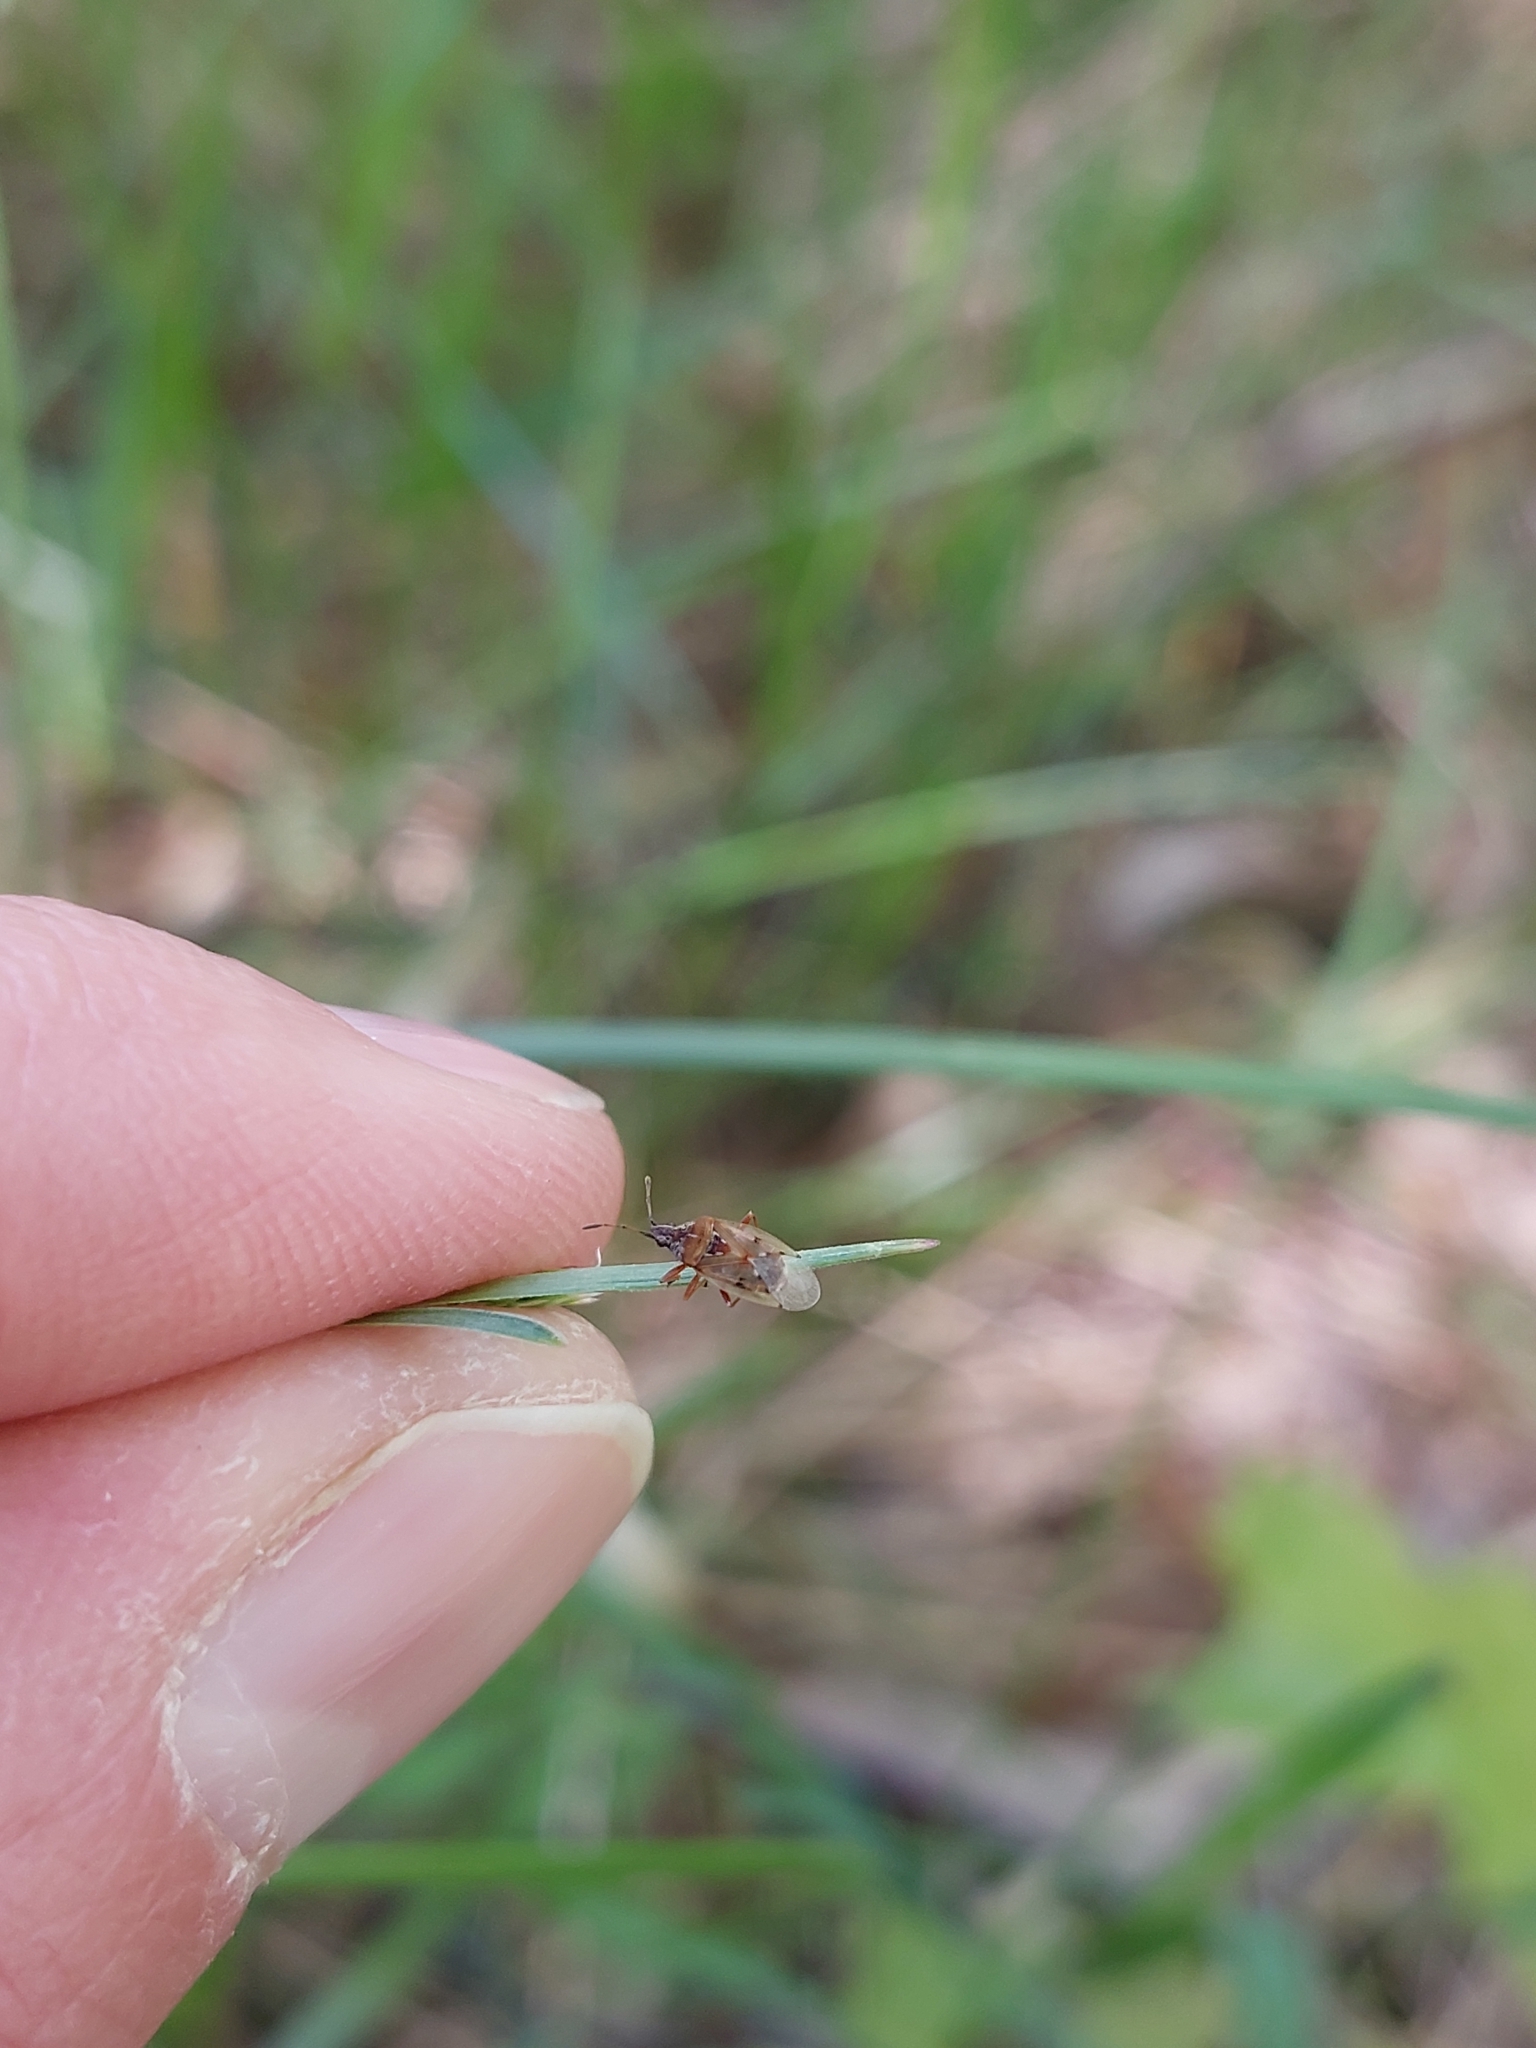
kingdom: Animalia
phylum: Arthropoda
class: Insecta
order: Hemiptera
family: Lygaeidae
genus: Kleidocerys
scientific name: Kleidocerys resedae
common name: Birch catkin bug
